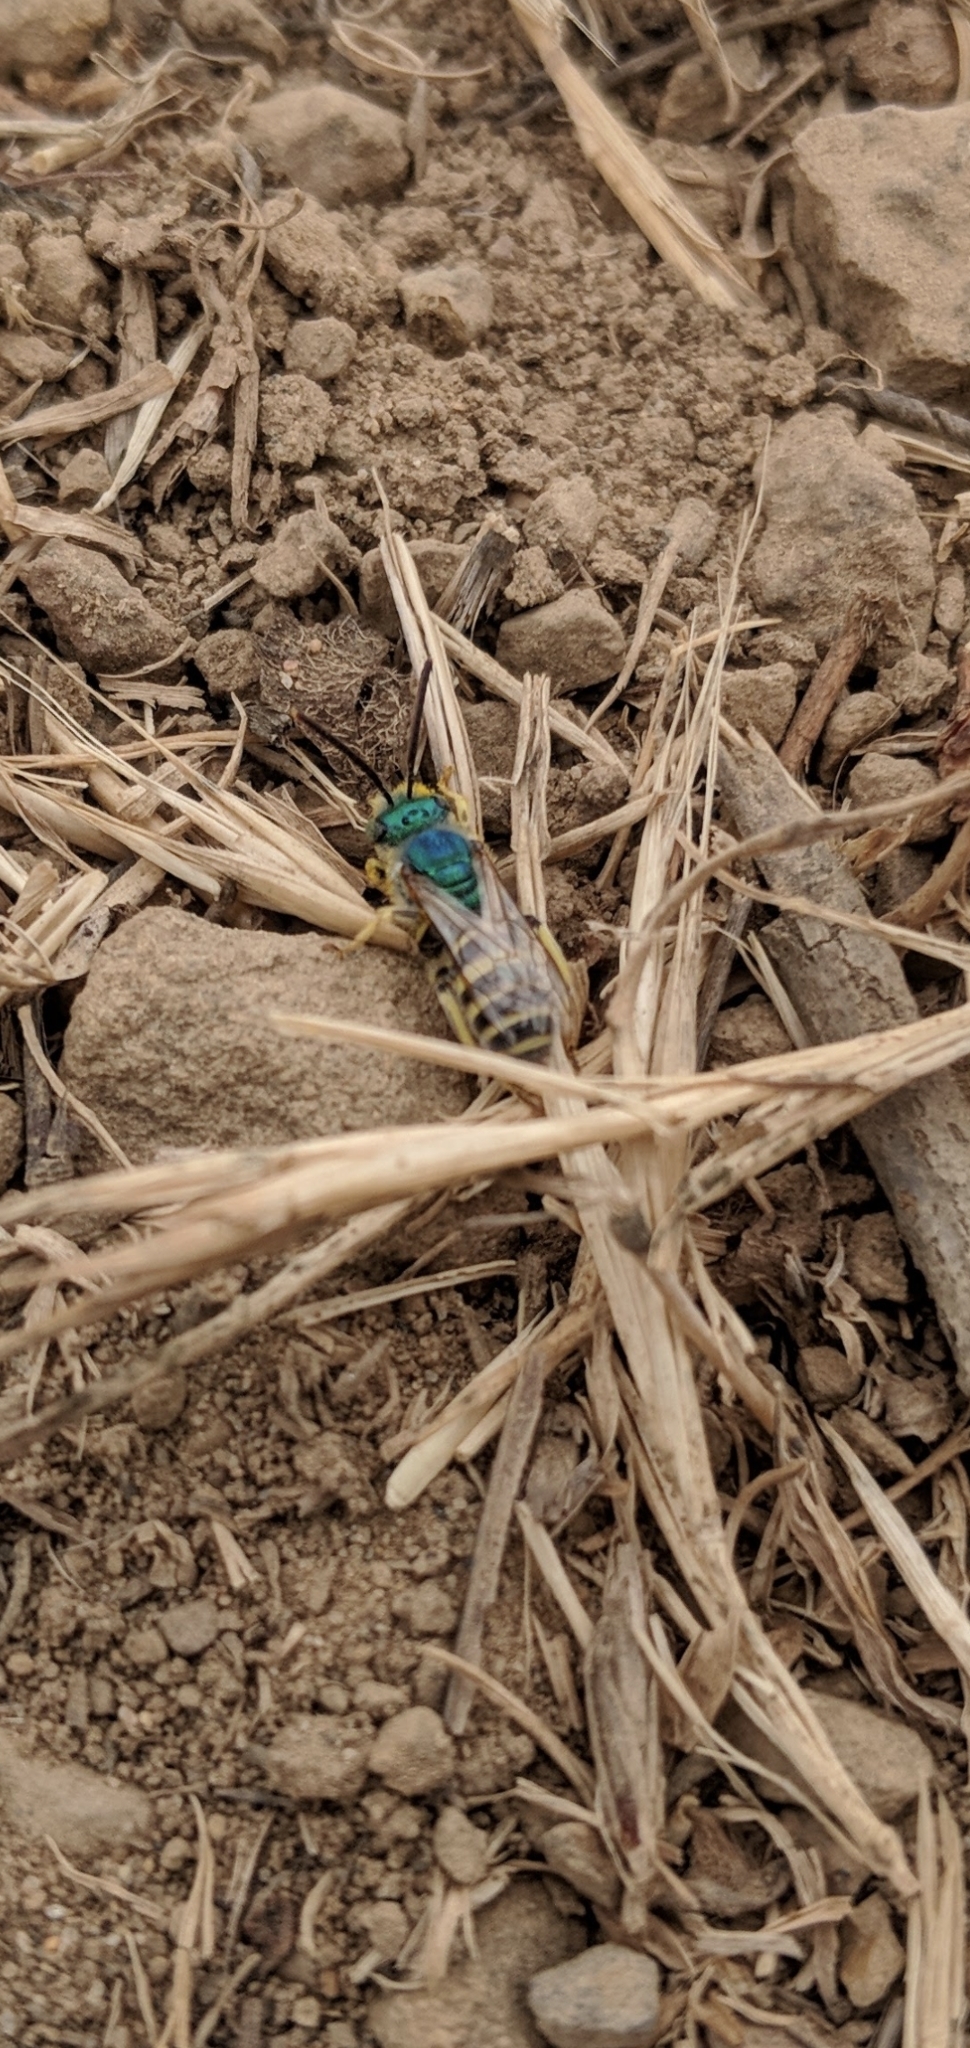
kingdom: Animalia
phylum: Arthropoda
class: Insecta
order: Hymenoptera
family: Halictidae
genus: Agapostemon
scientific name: Agapostemon texanus
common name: Texas striped sweat bee
